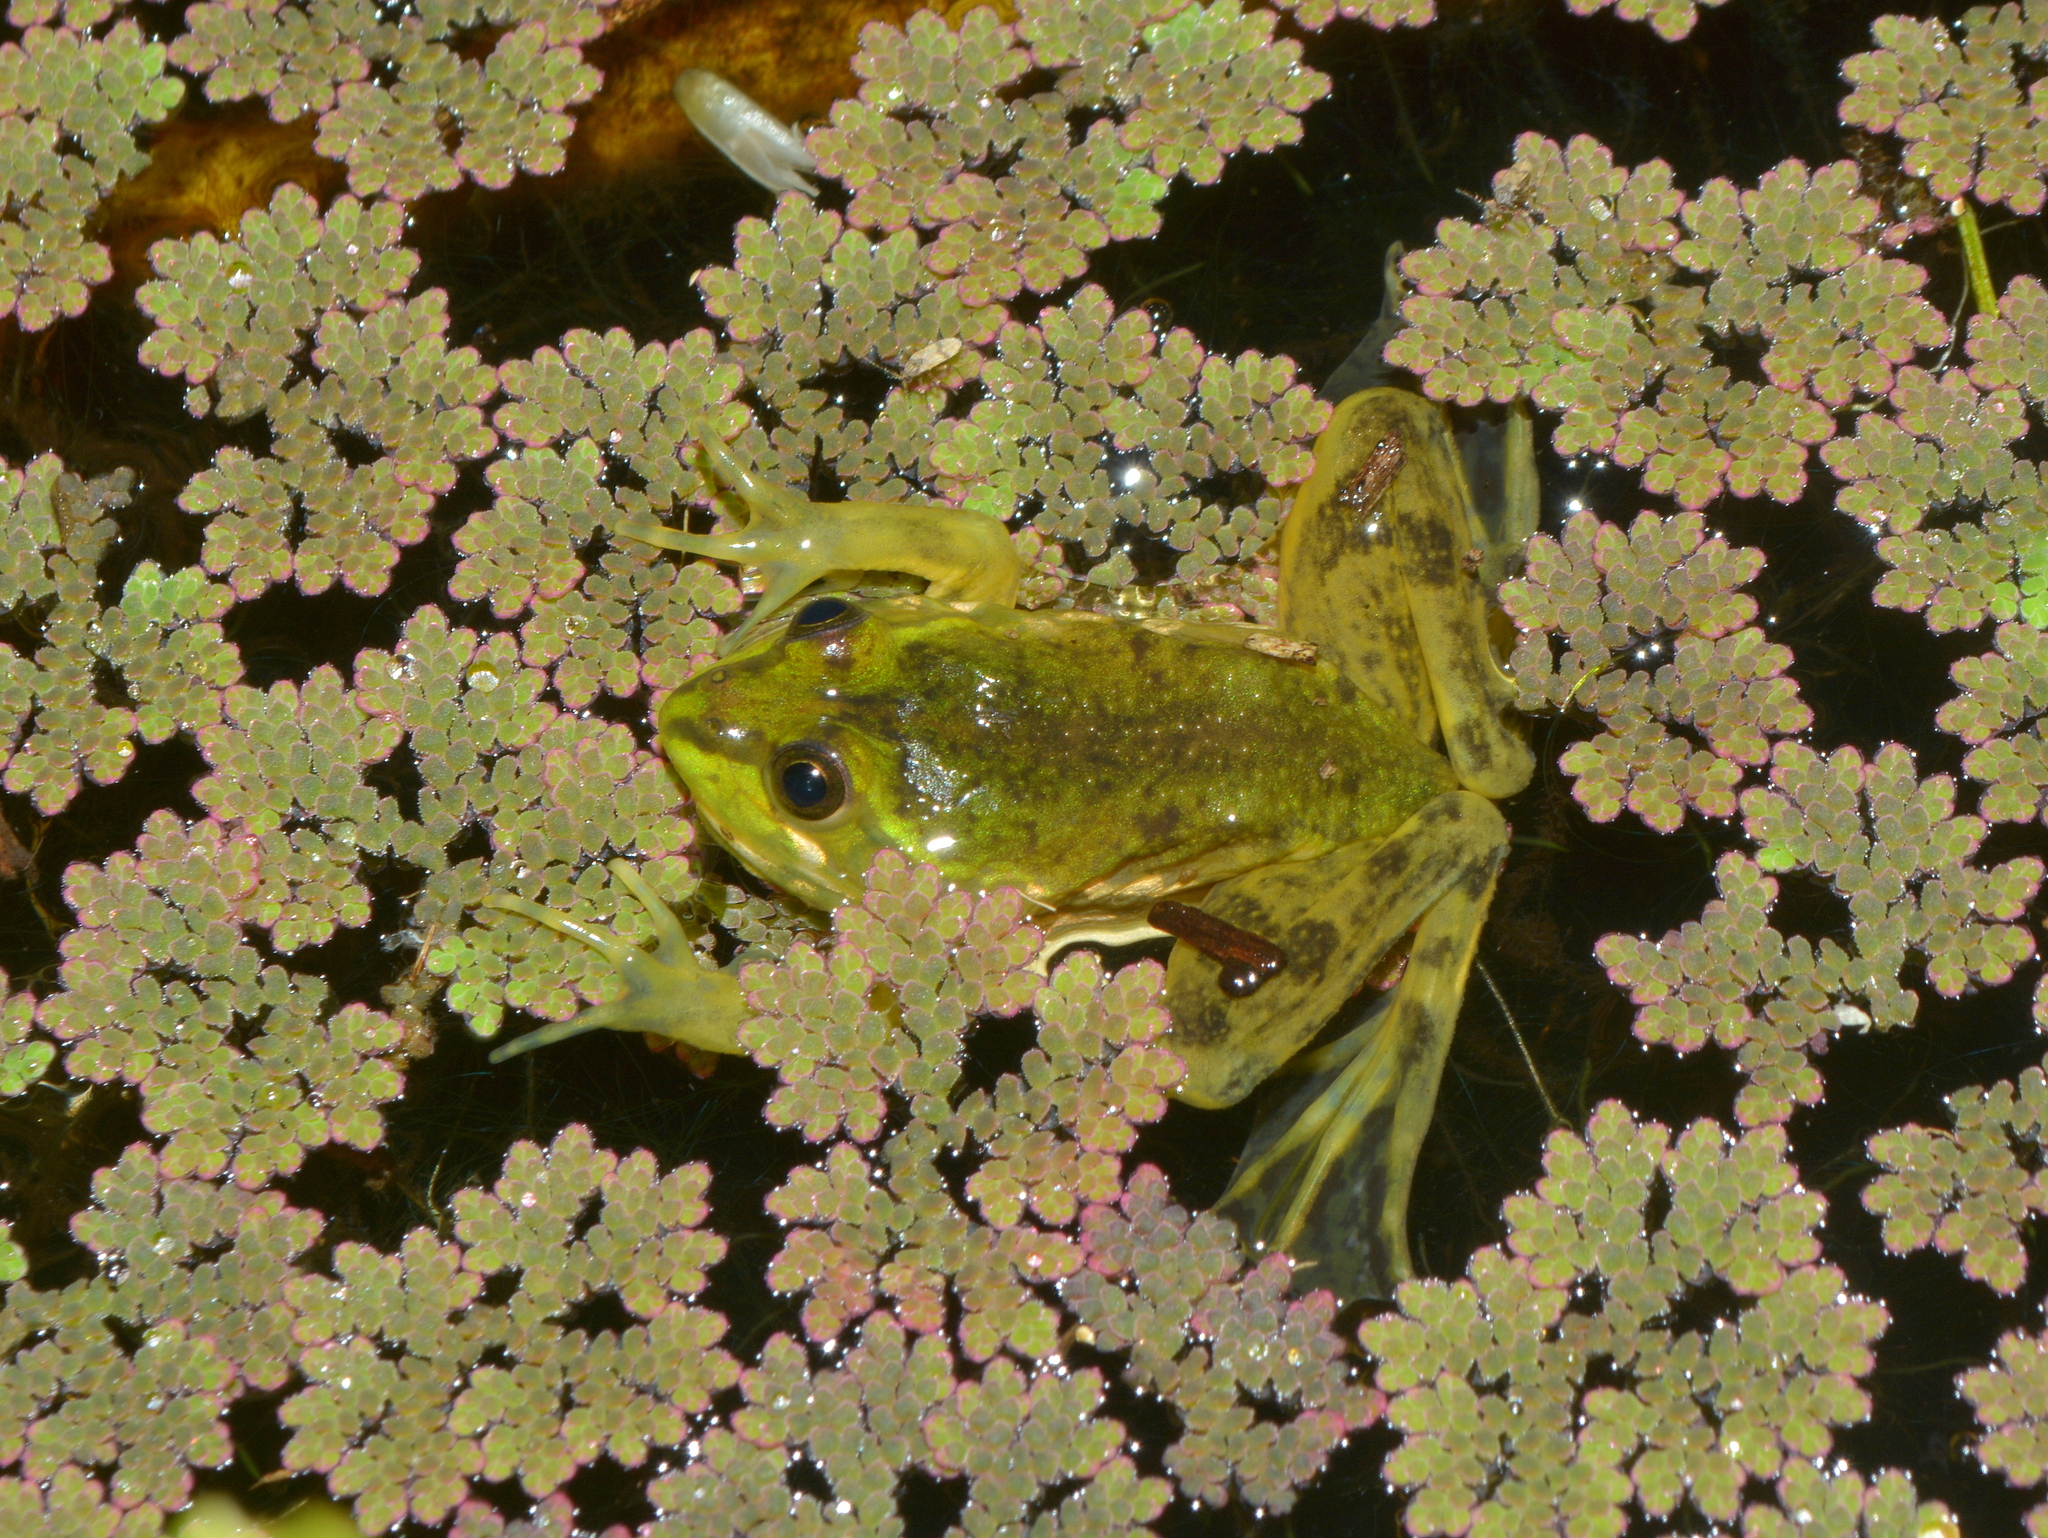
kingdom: Animalia
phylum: Chordata
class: Amphibia
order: Anura
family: Hylidae
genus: Pseudis
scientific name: Pseudis minuta
